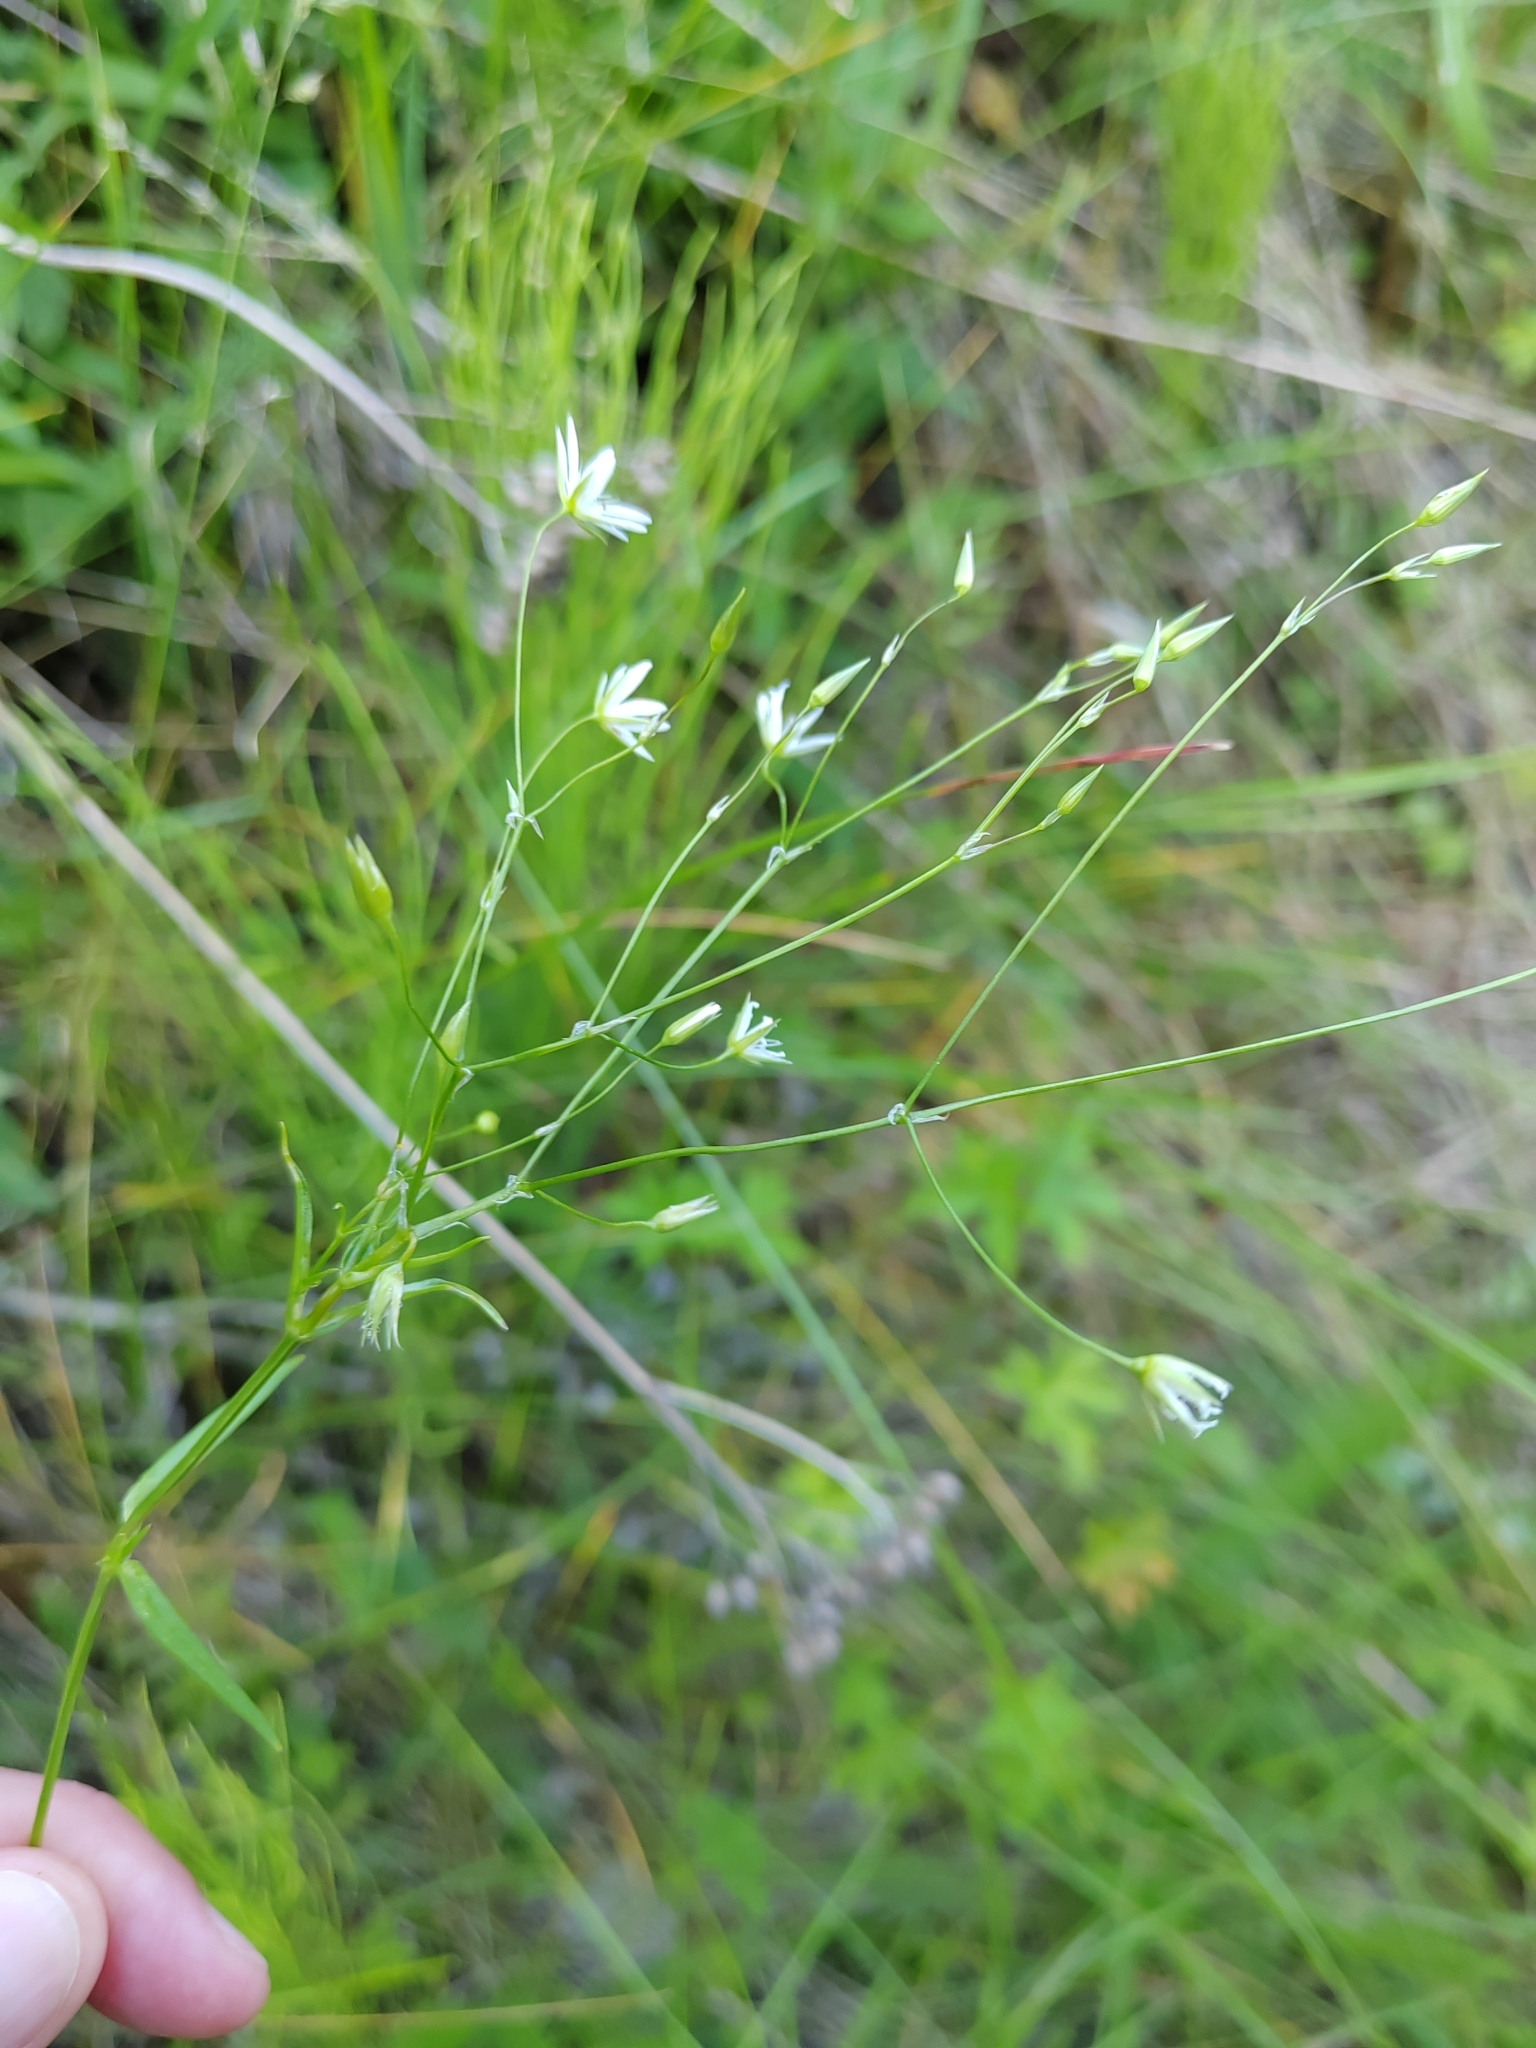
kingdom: Plantae
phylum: Tracheophyta
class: Magnoliopsida
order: Caryophyllales
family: Caryophyllaceae
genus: Stellaria
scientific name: Stellaria graminea
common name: Grass-like starwort
